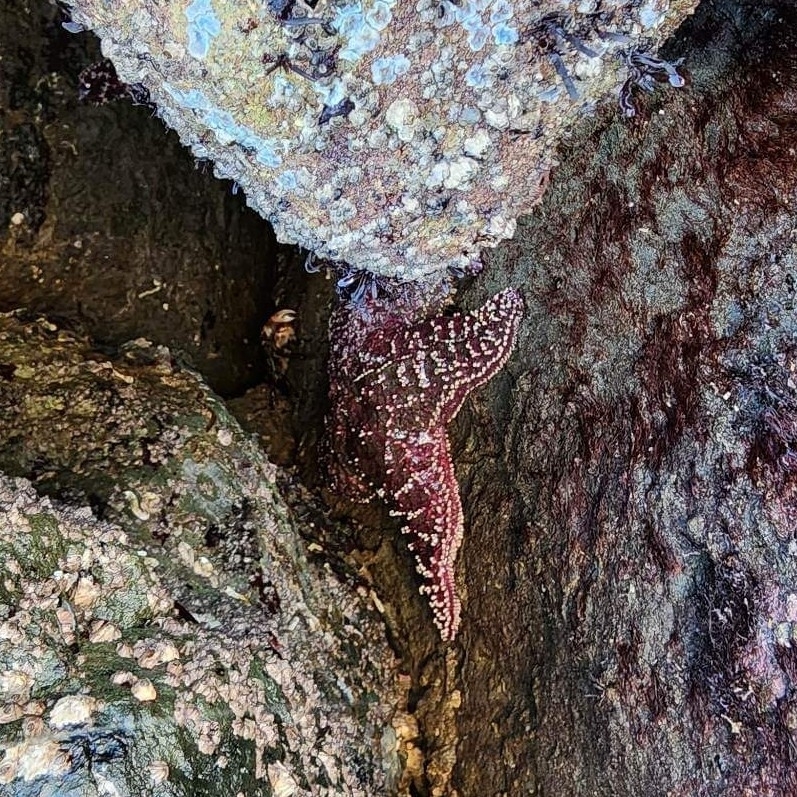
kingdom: Animalia
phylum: Echinodermata
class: Asteroidea
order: Forcipulatida
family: Asteriidae
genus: Pisaster
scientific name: Pisaster ochraceus
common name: Ochre stars
